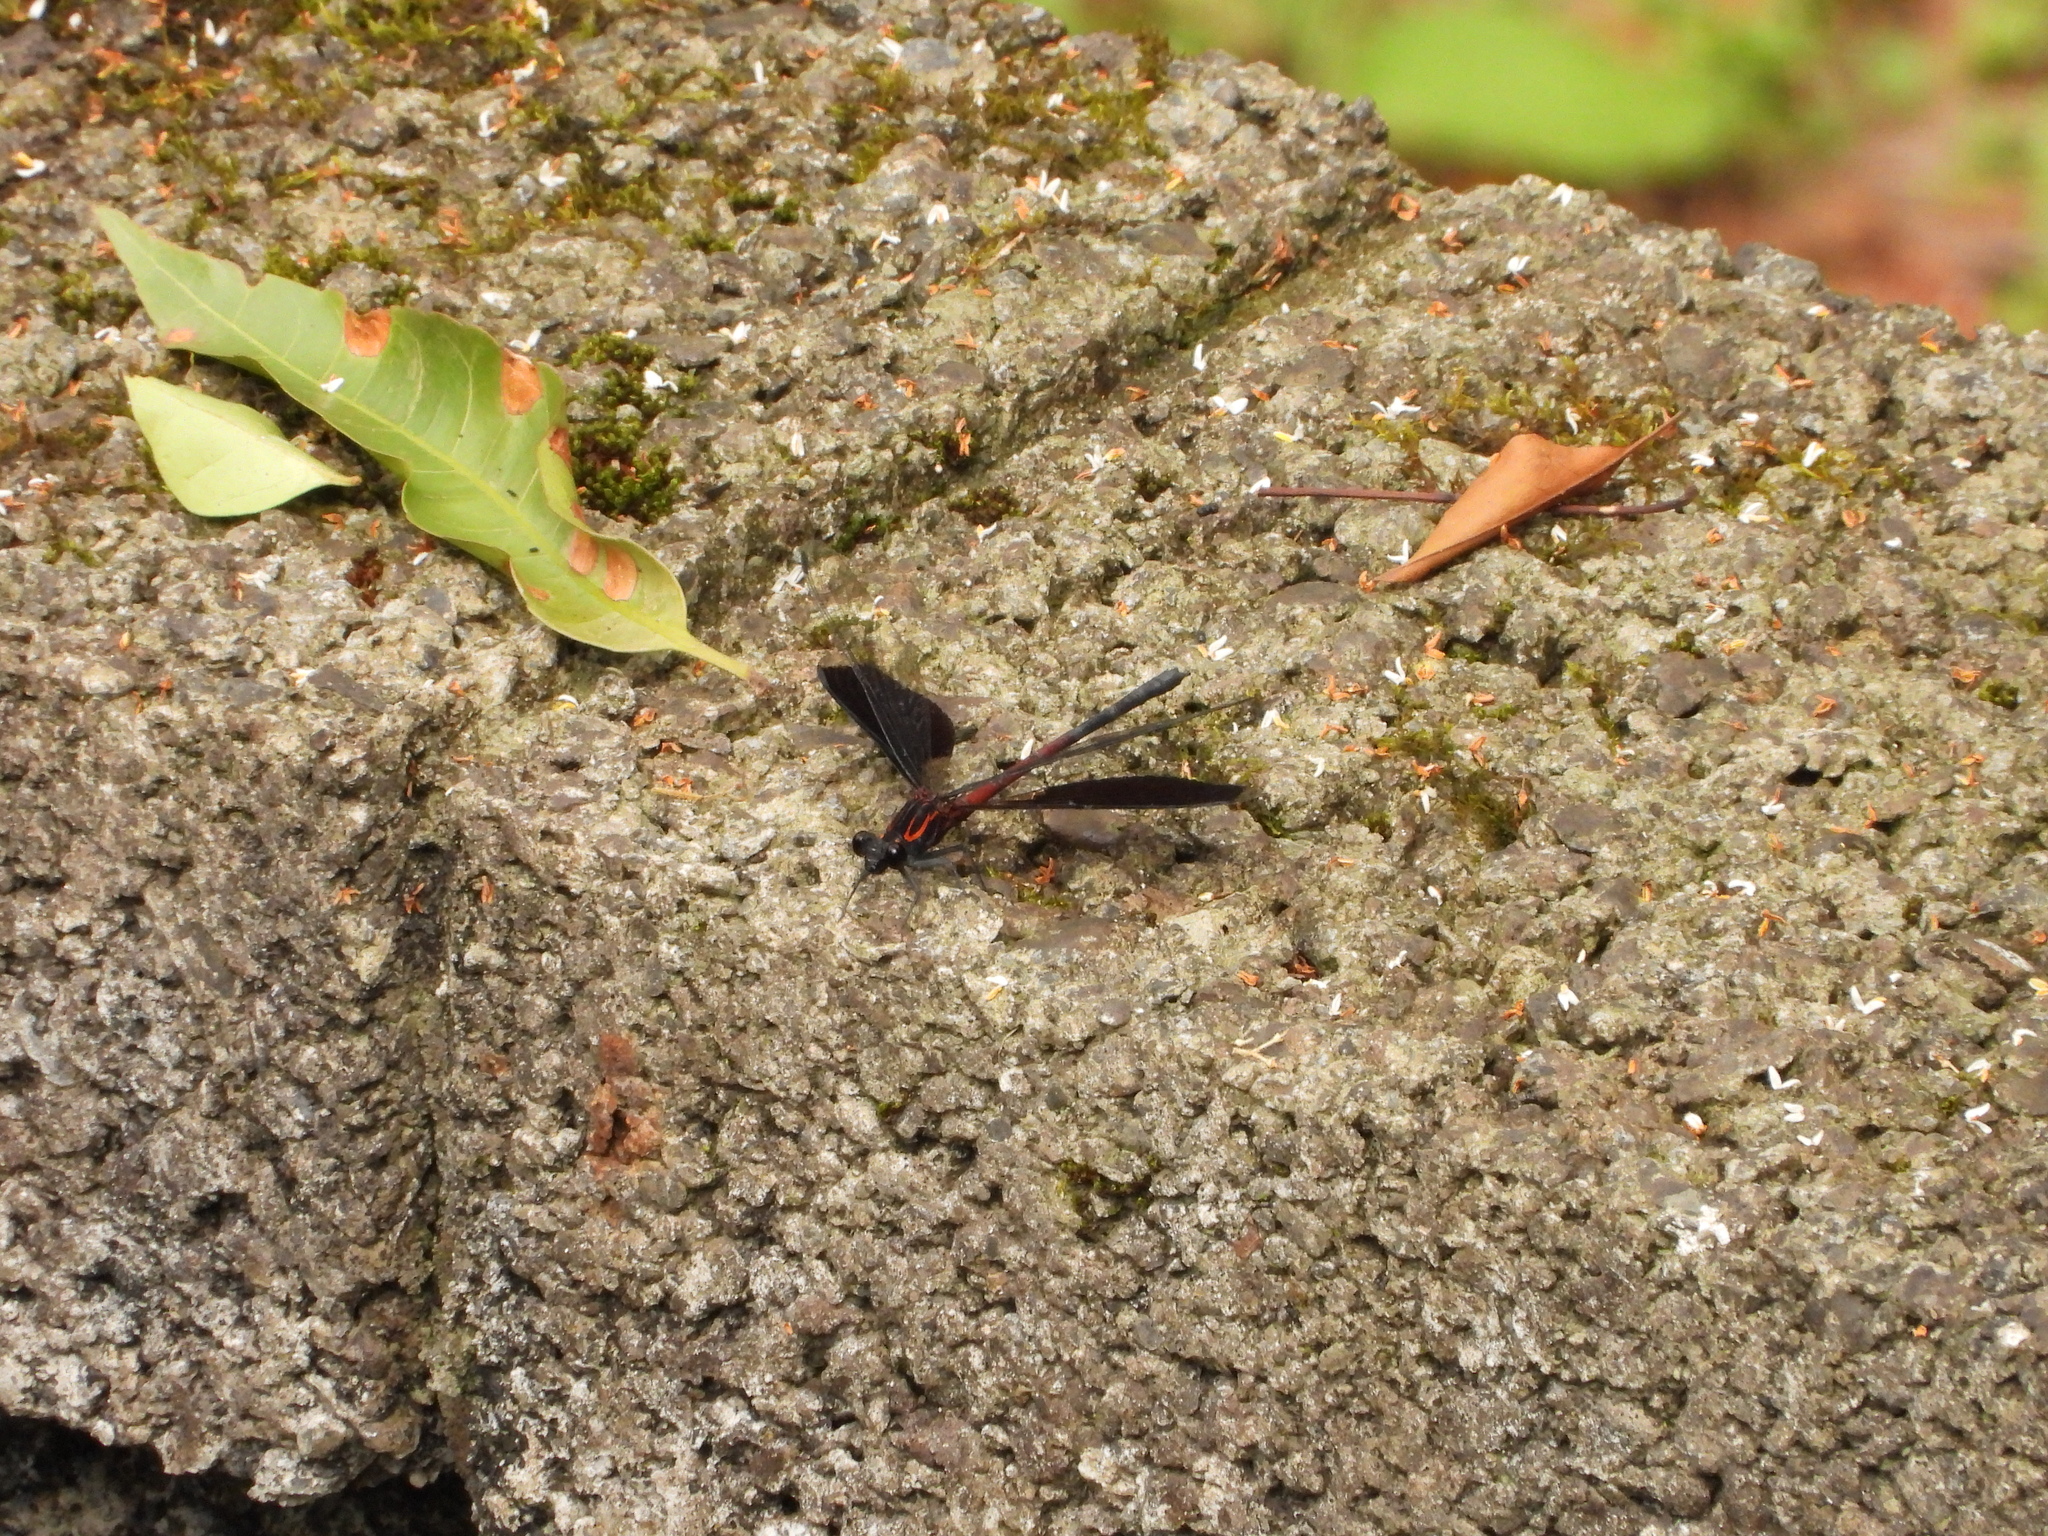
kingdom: Animalia
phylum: Arthropoda
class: Insecta
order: Odonata
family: Euphaeidae
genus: Euphaea
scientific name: Euphaea formosa
